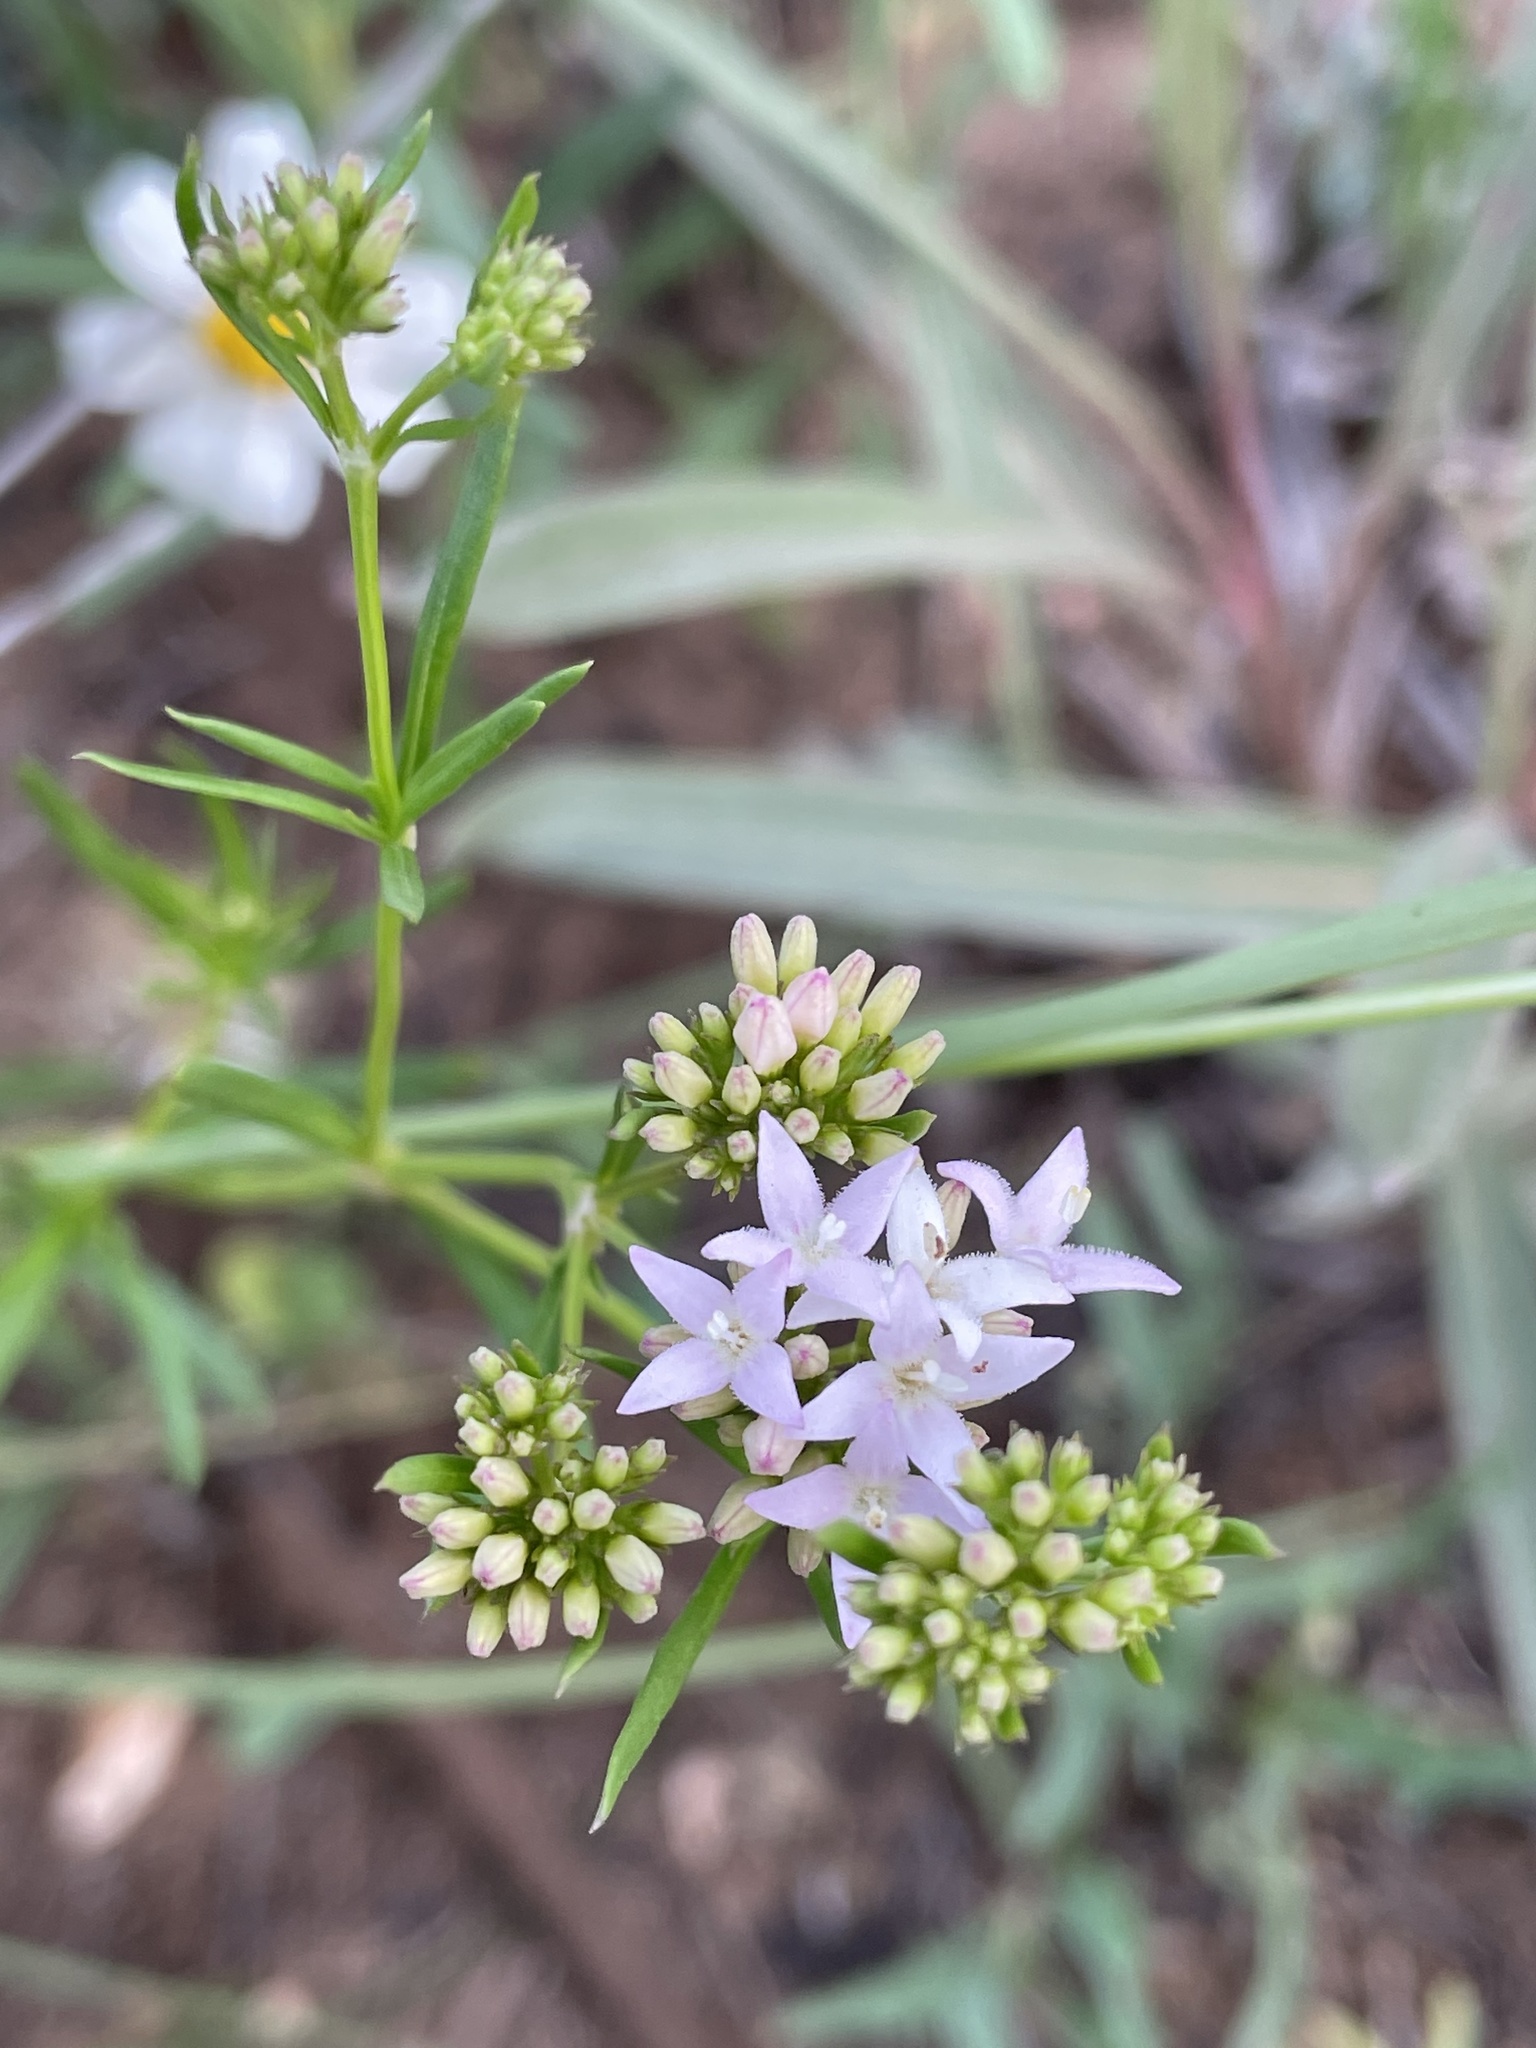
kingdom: Plantae
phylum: Tracheophyta
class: Magnoliopsida
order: Gentianales
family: Rubiaceae
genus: Stenaria
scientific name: Stenaria nigricans
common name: Diamondflowers
